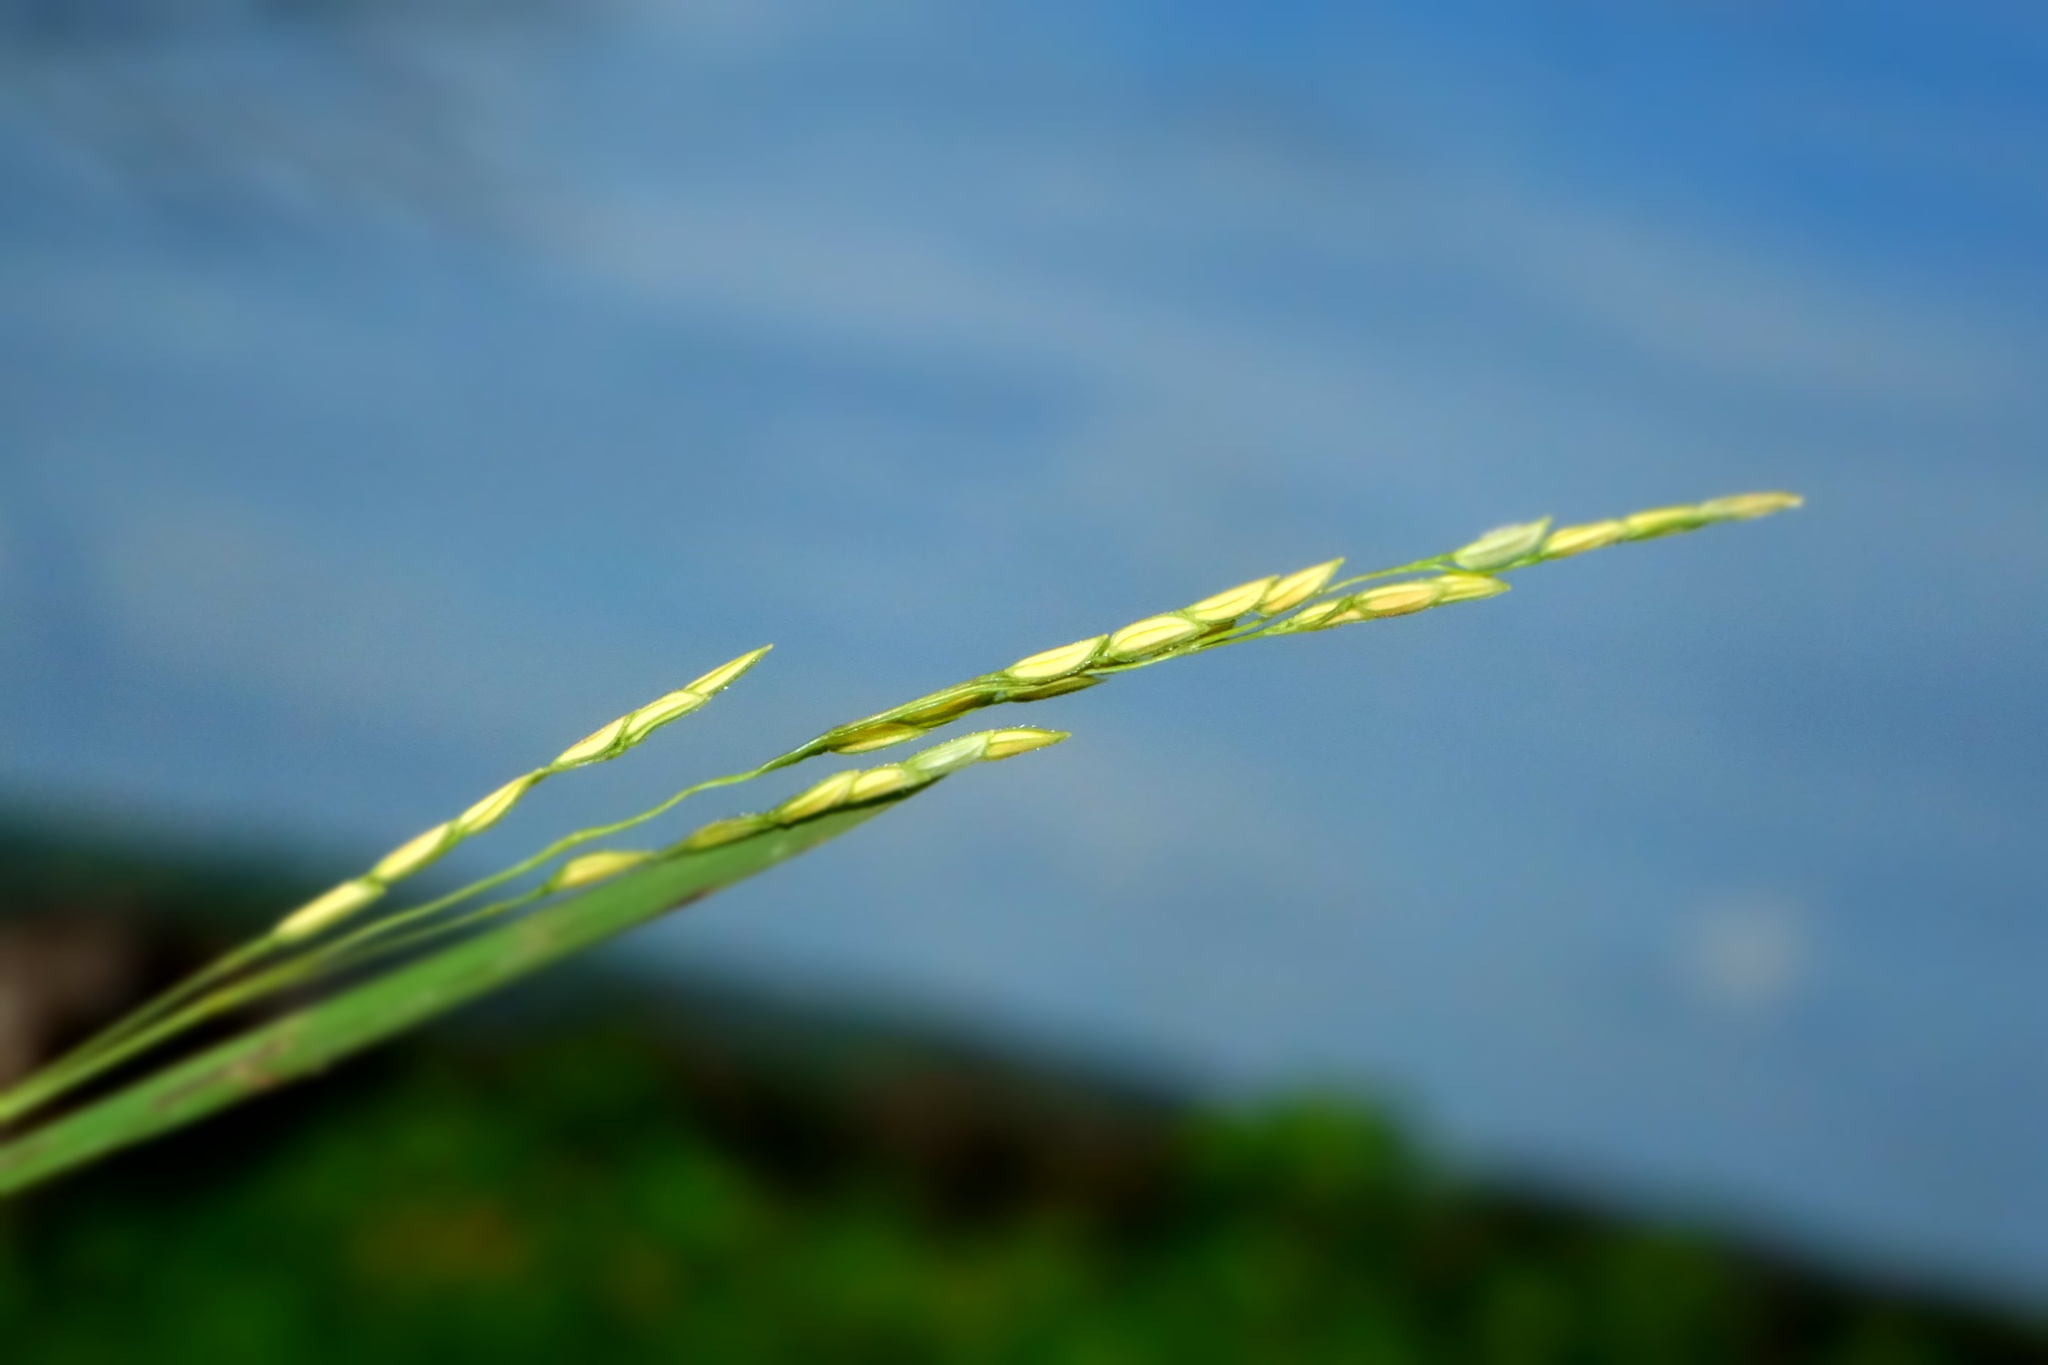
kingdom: Plantae
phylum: Tracheophyta
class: Liliopsida
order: Poales
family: Poaceae
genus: Leersia
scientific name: Leersia hexandra
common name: Southern cut grass
